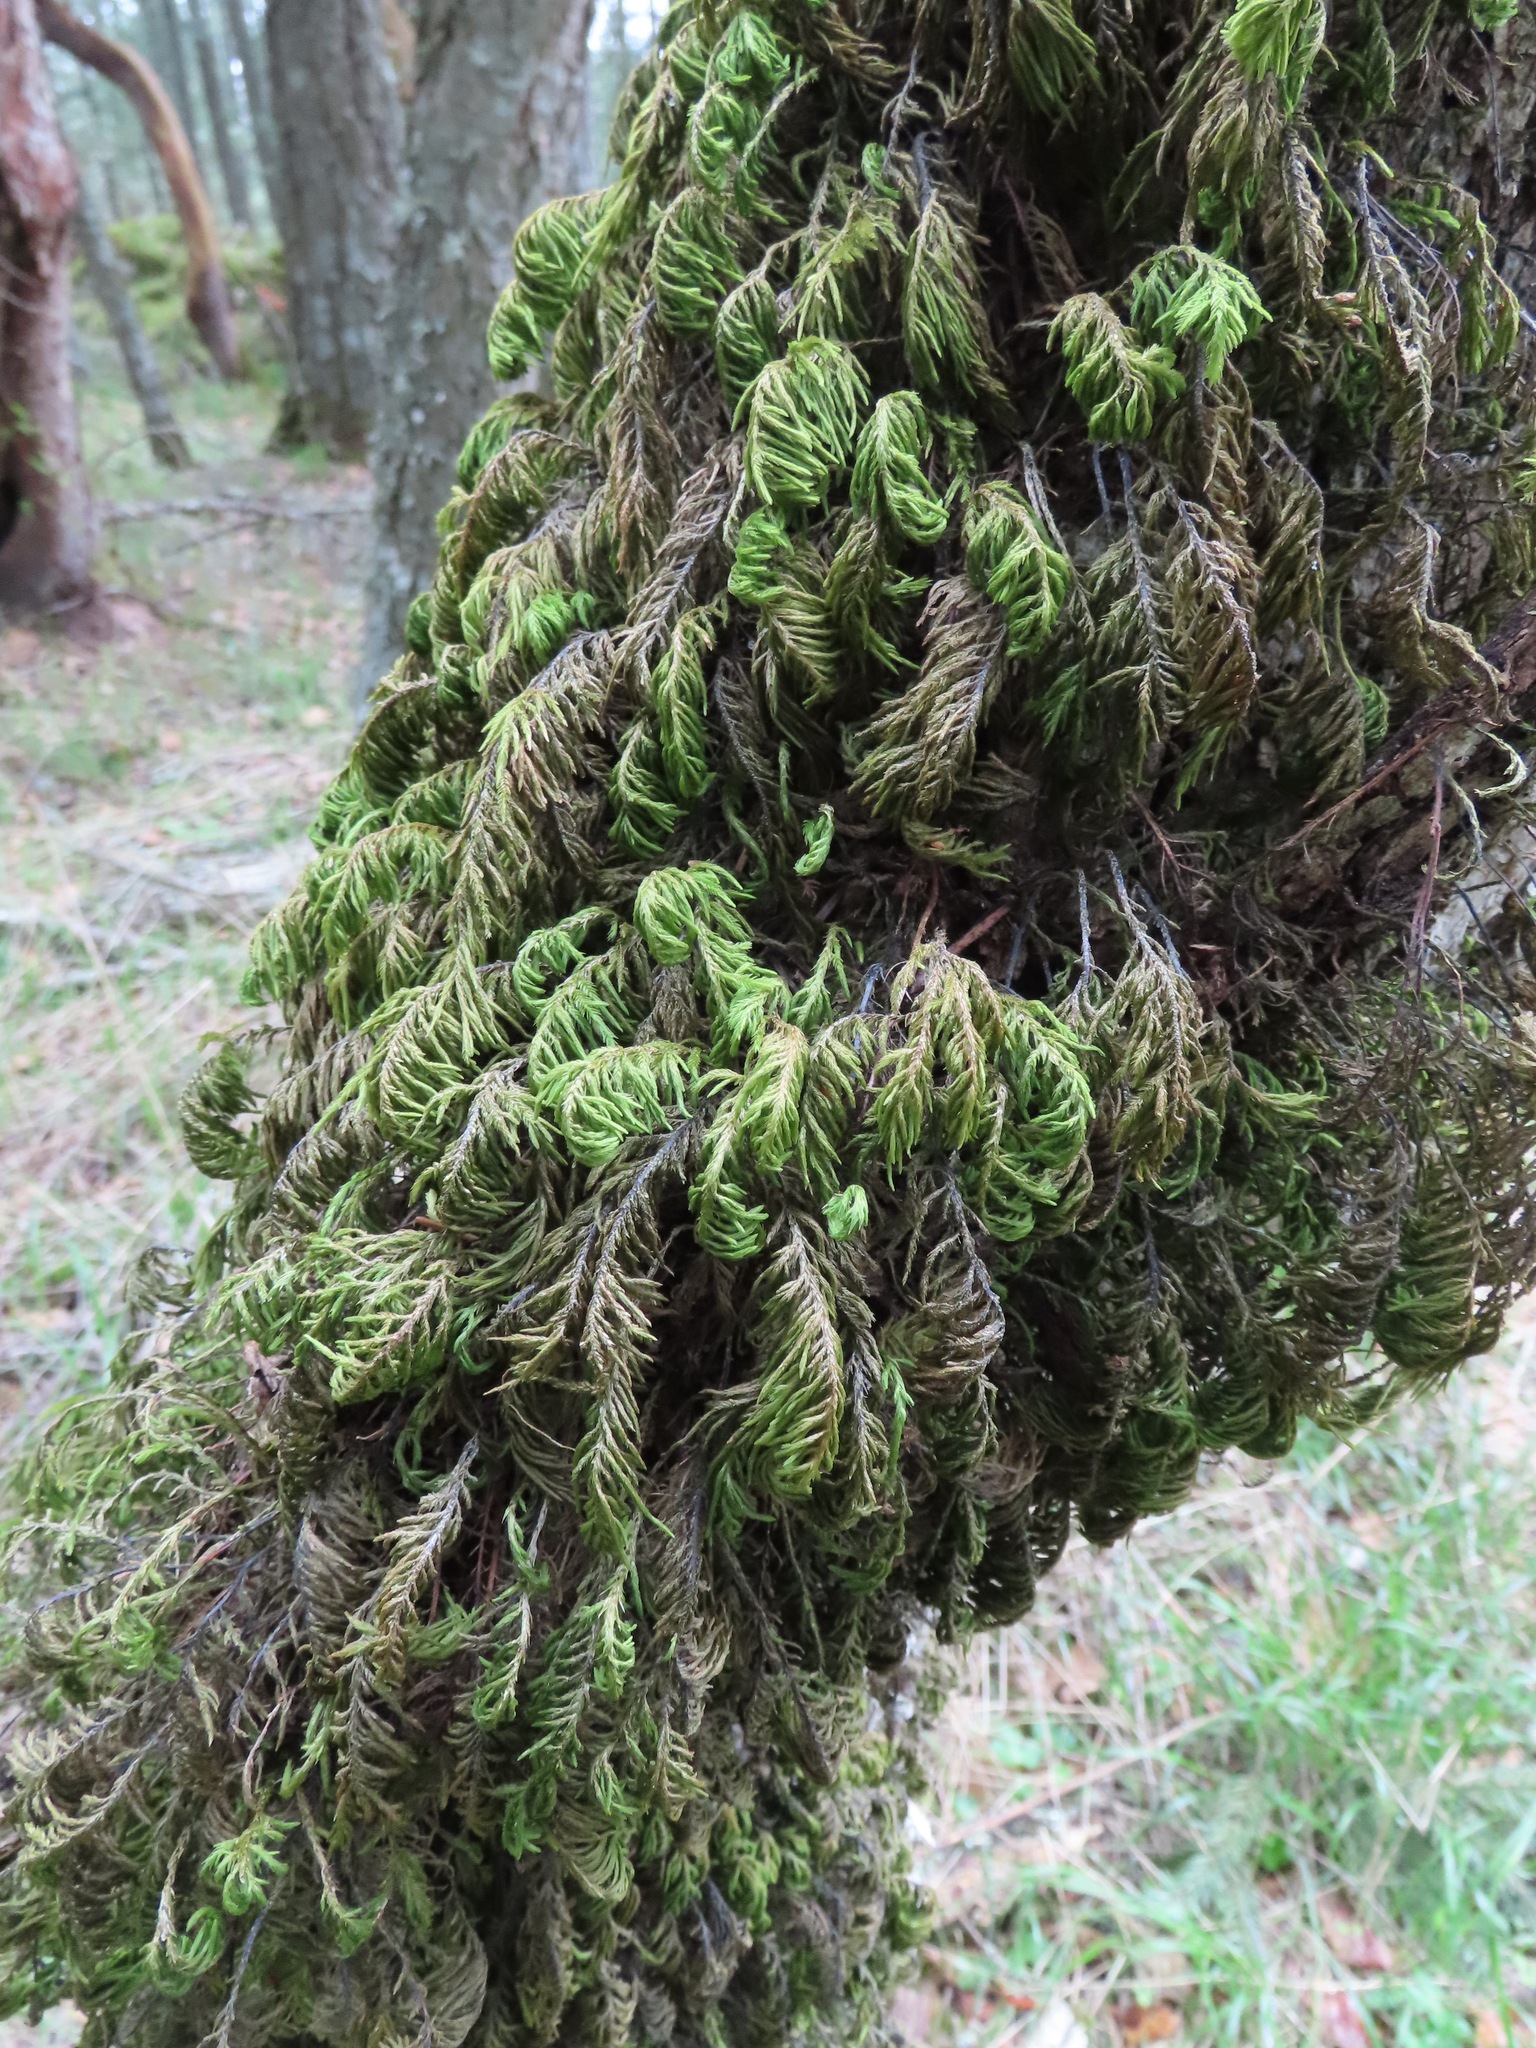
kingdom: Plantae
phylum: Bryophyta
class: Bryopsida
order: Hypnales
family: Cryphaeaceae
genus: Dendroalsia
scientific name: Dendroalsia abietina
